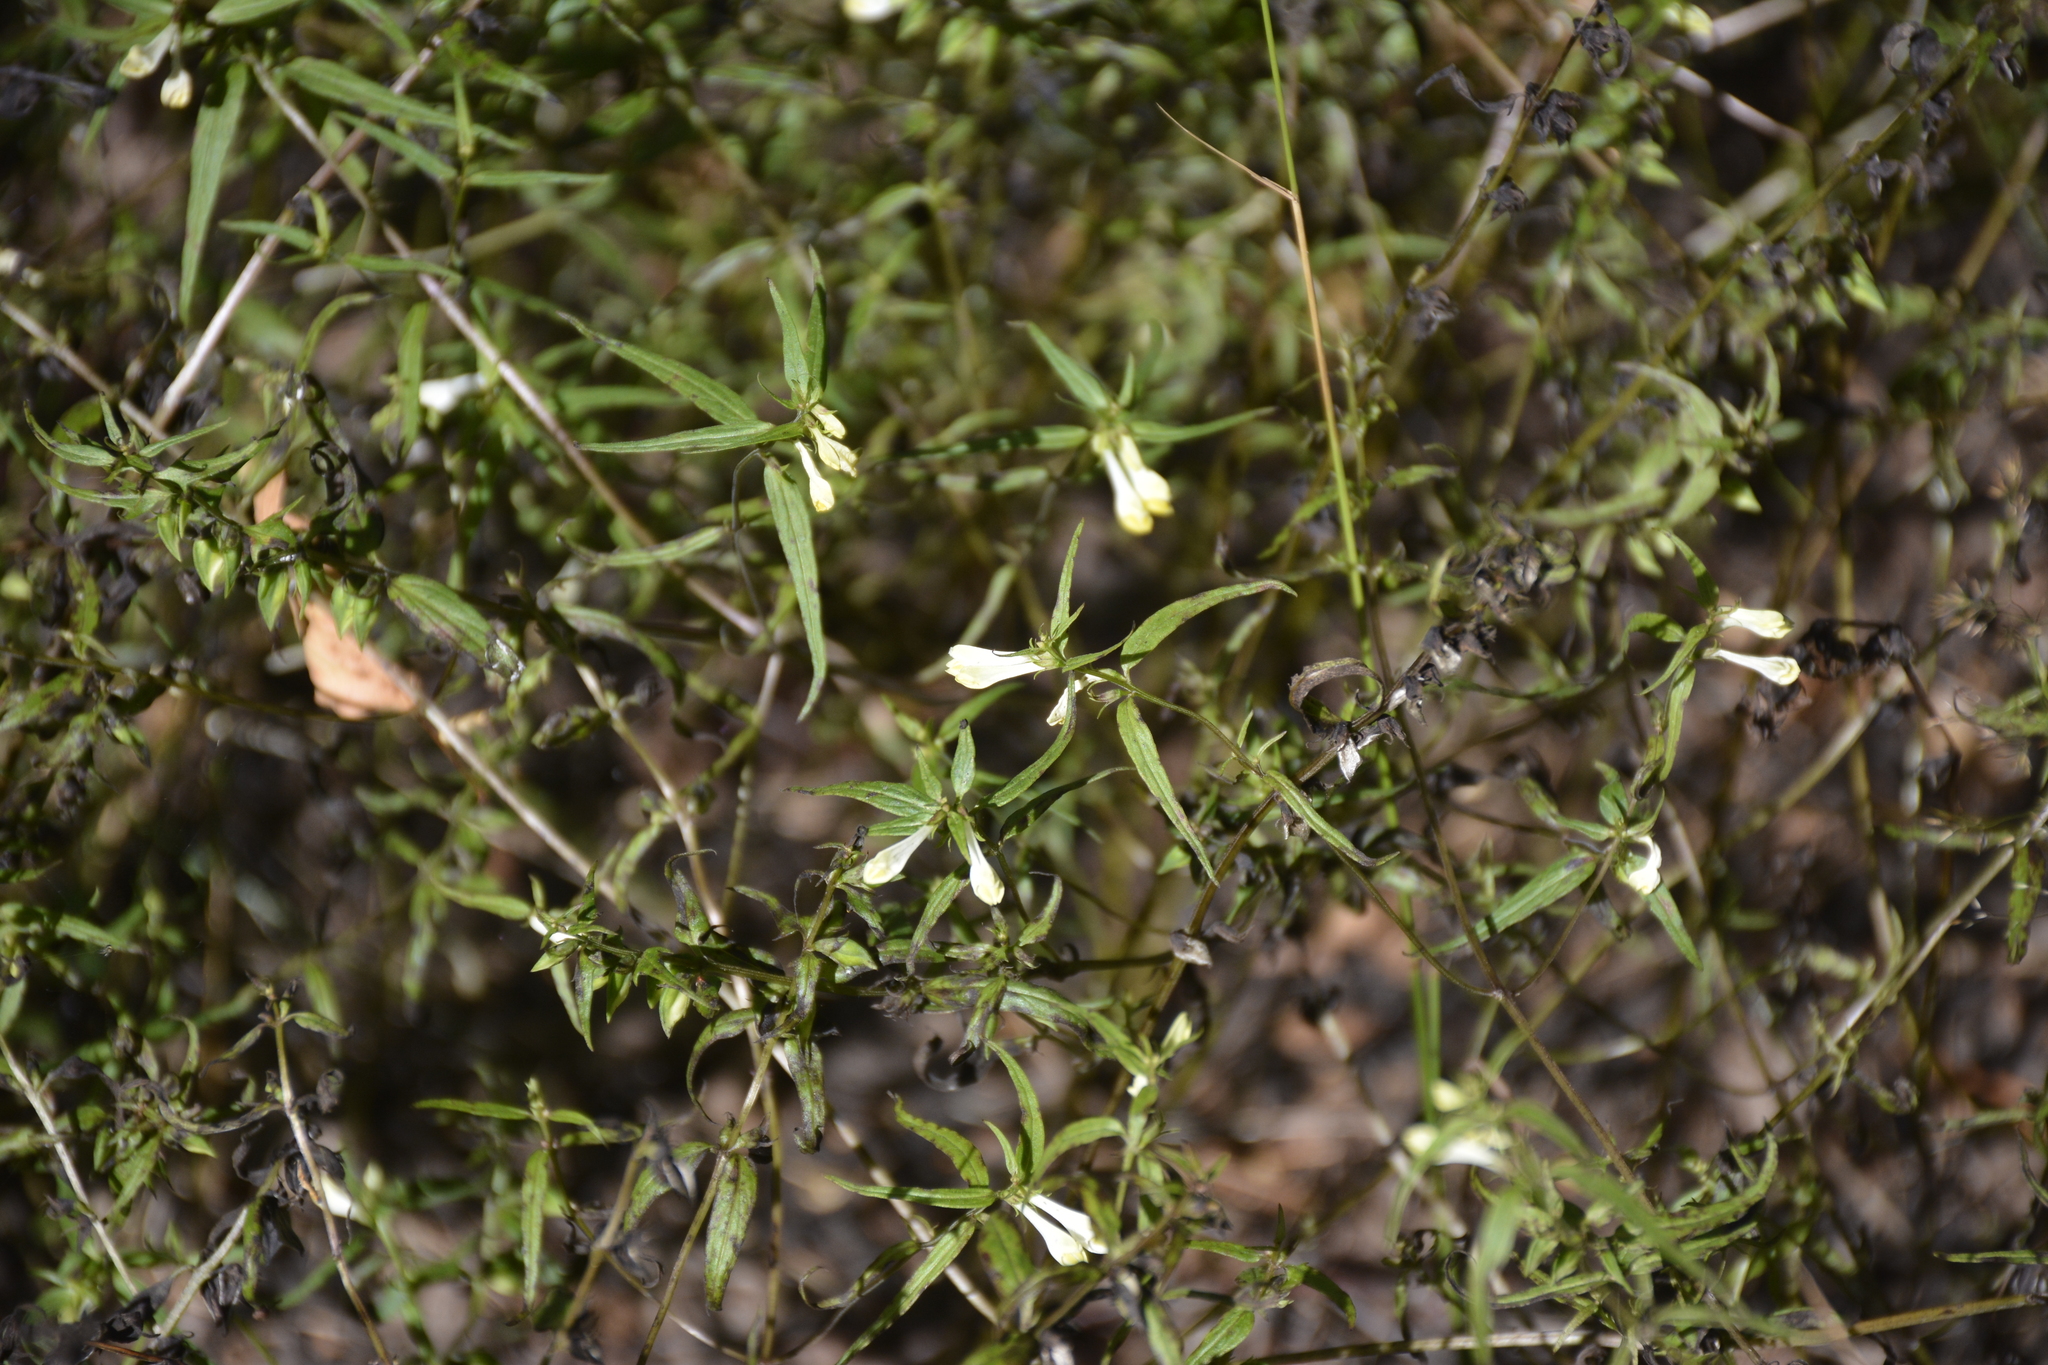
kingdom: Plantae
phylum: Tracheophyta
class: Magnoliopsida
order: Lamiales
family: Orobanchaceae
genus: Melampyrum
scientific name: Melampyrum pratense
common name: Common cow-wheat
